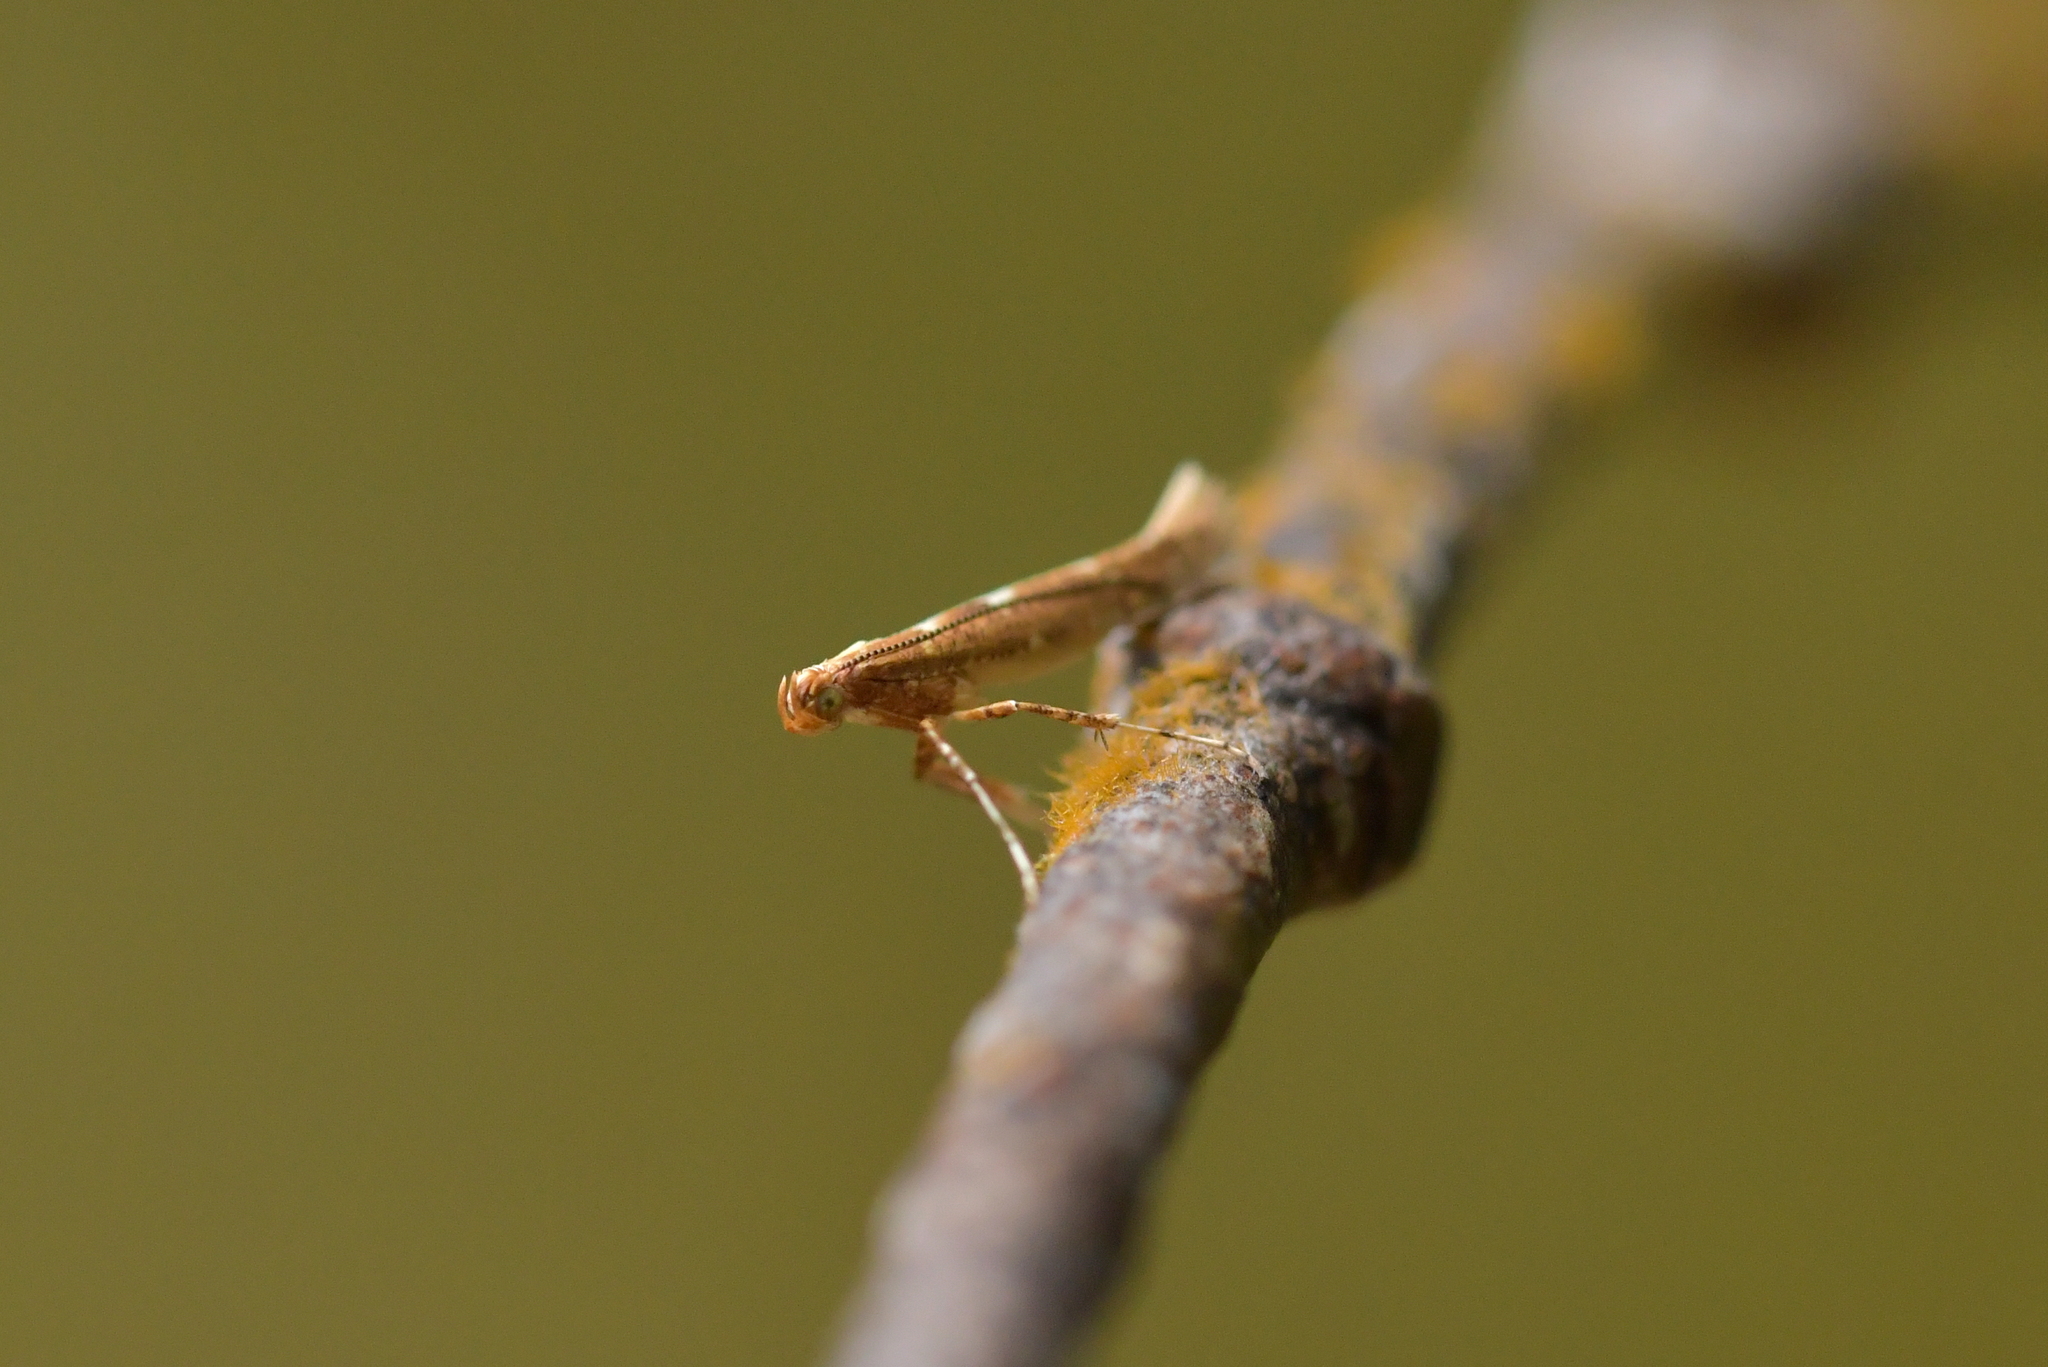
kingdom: Animalia
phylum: Arthropoda
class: Insecta
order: Lepidoptera
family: Gracillariidae
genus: Caloptilia
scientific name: Caloptilia selenitis
